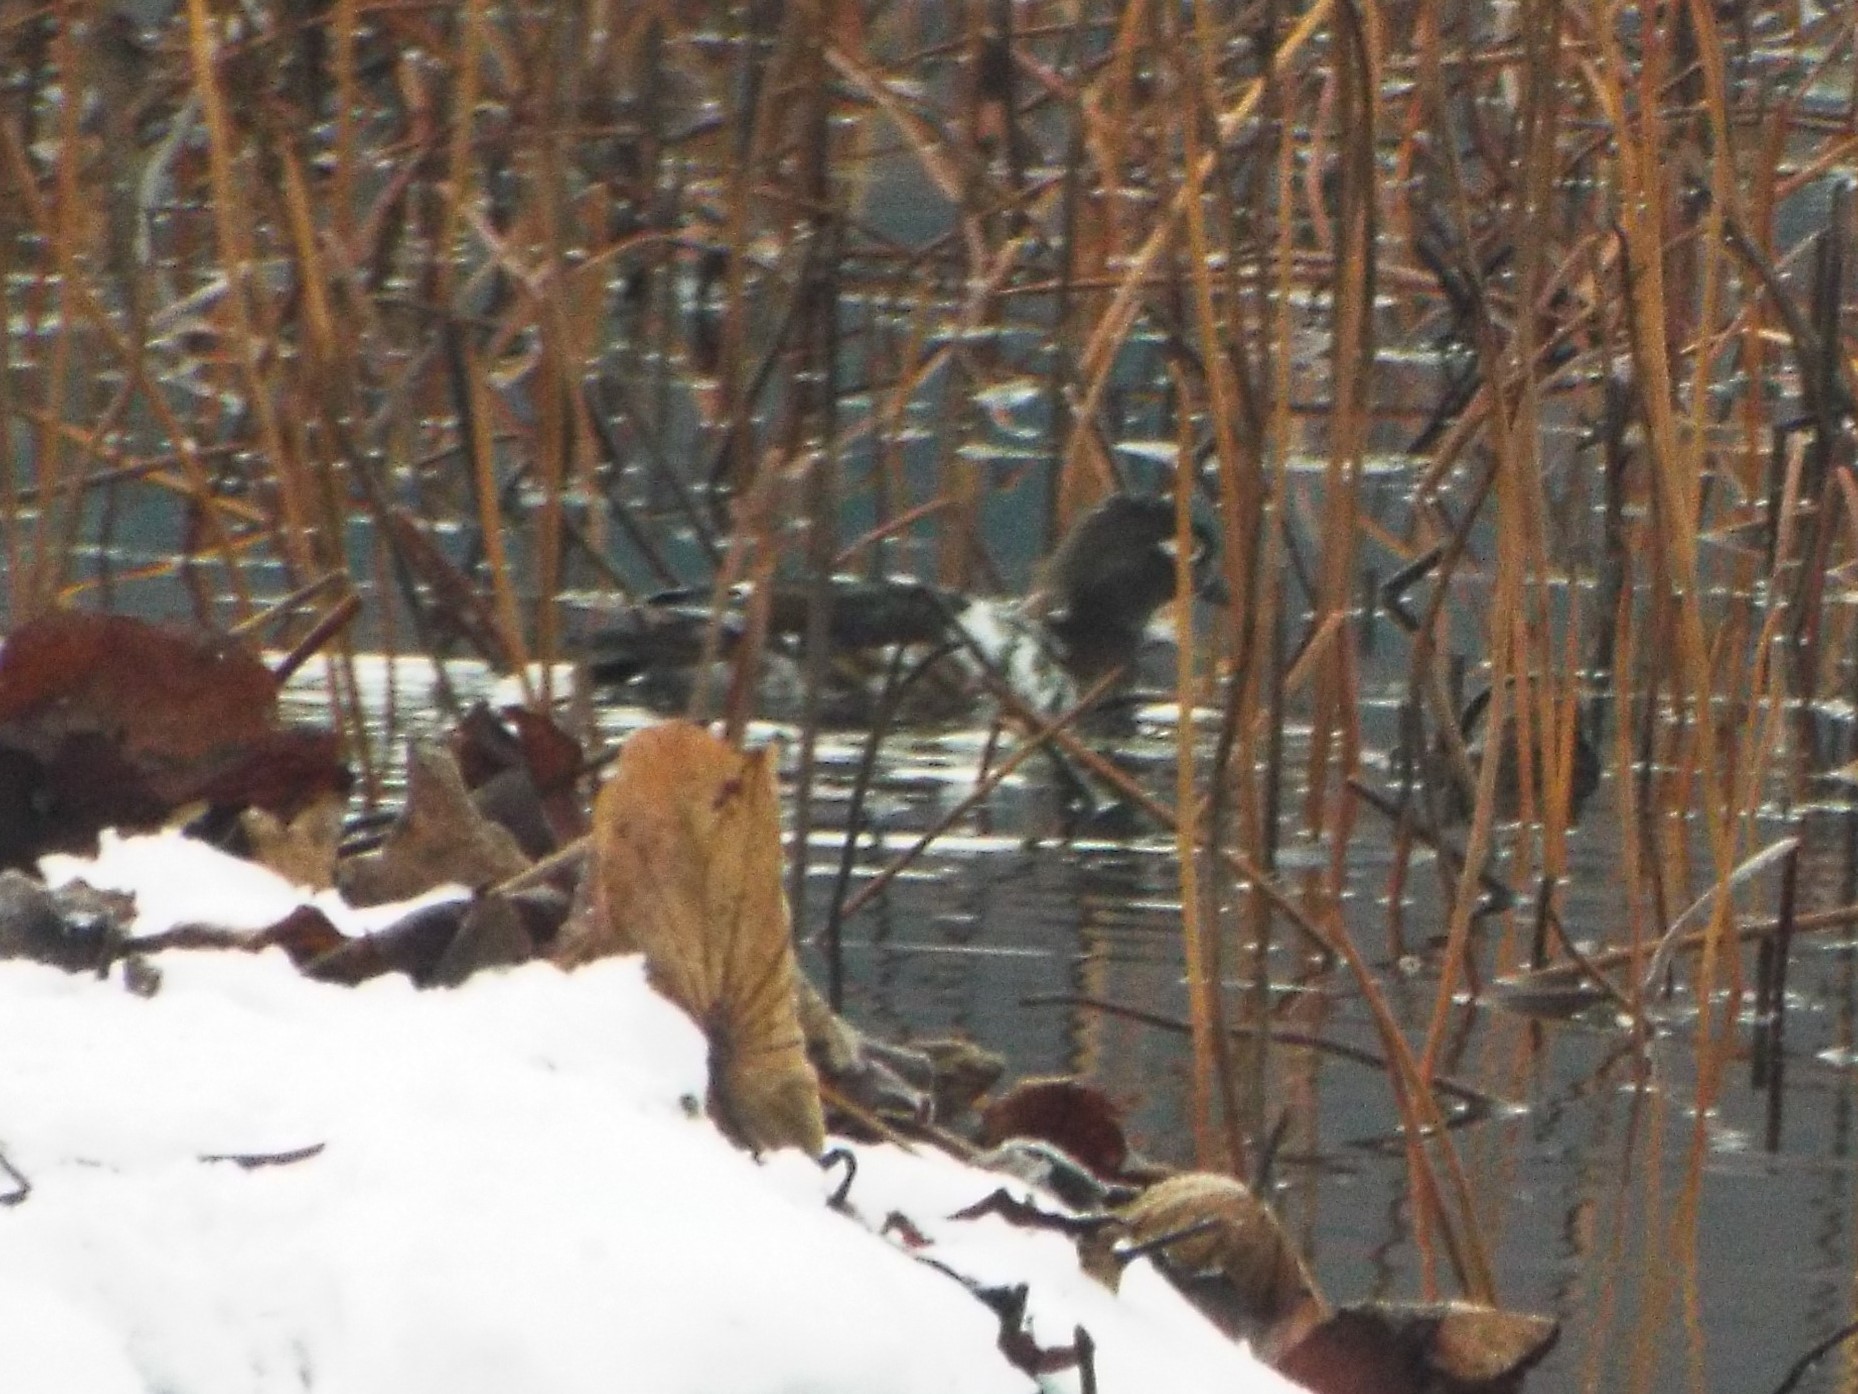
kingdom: Animalia
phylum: Chordata
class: Aves
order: Anseriformes
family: Anatidae
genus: Aix
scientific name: Aix sponsa
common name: Wood duck
